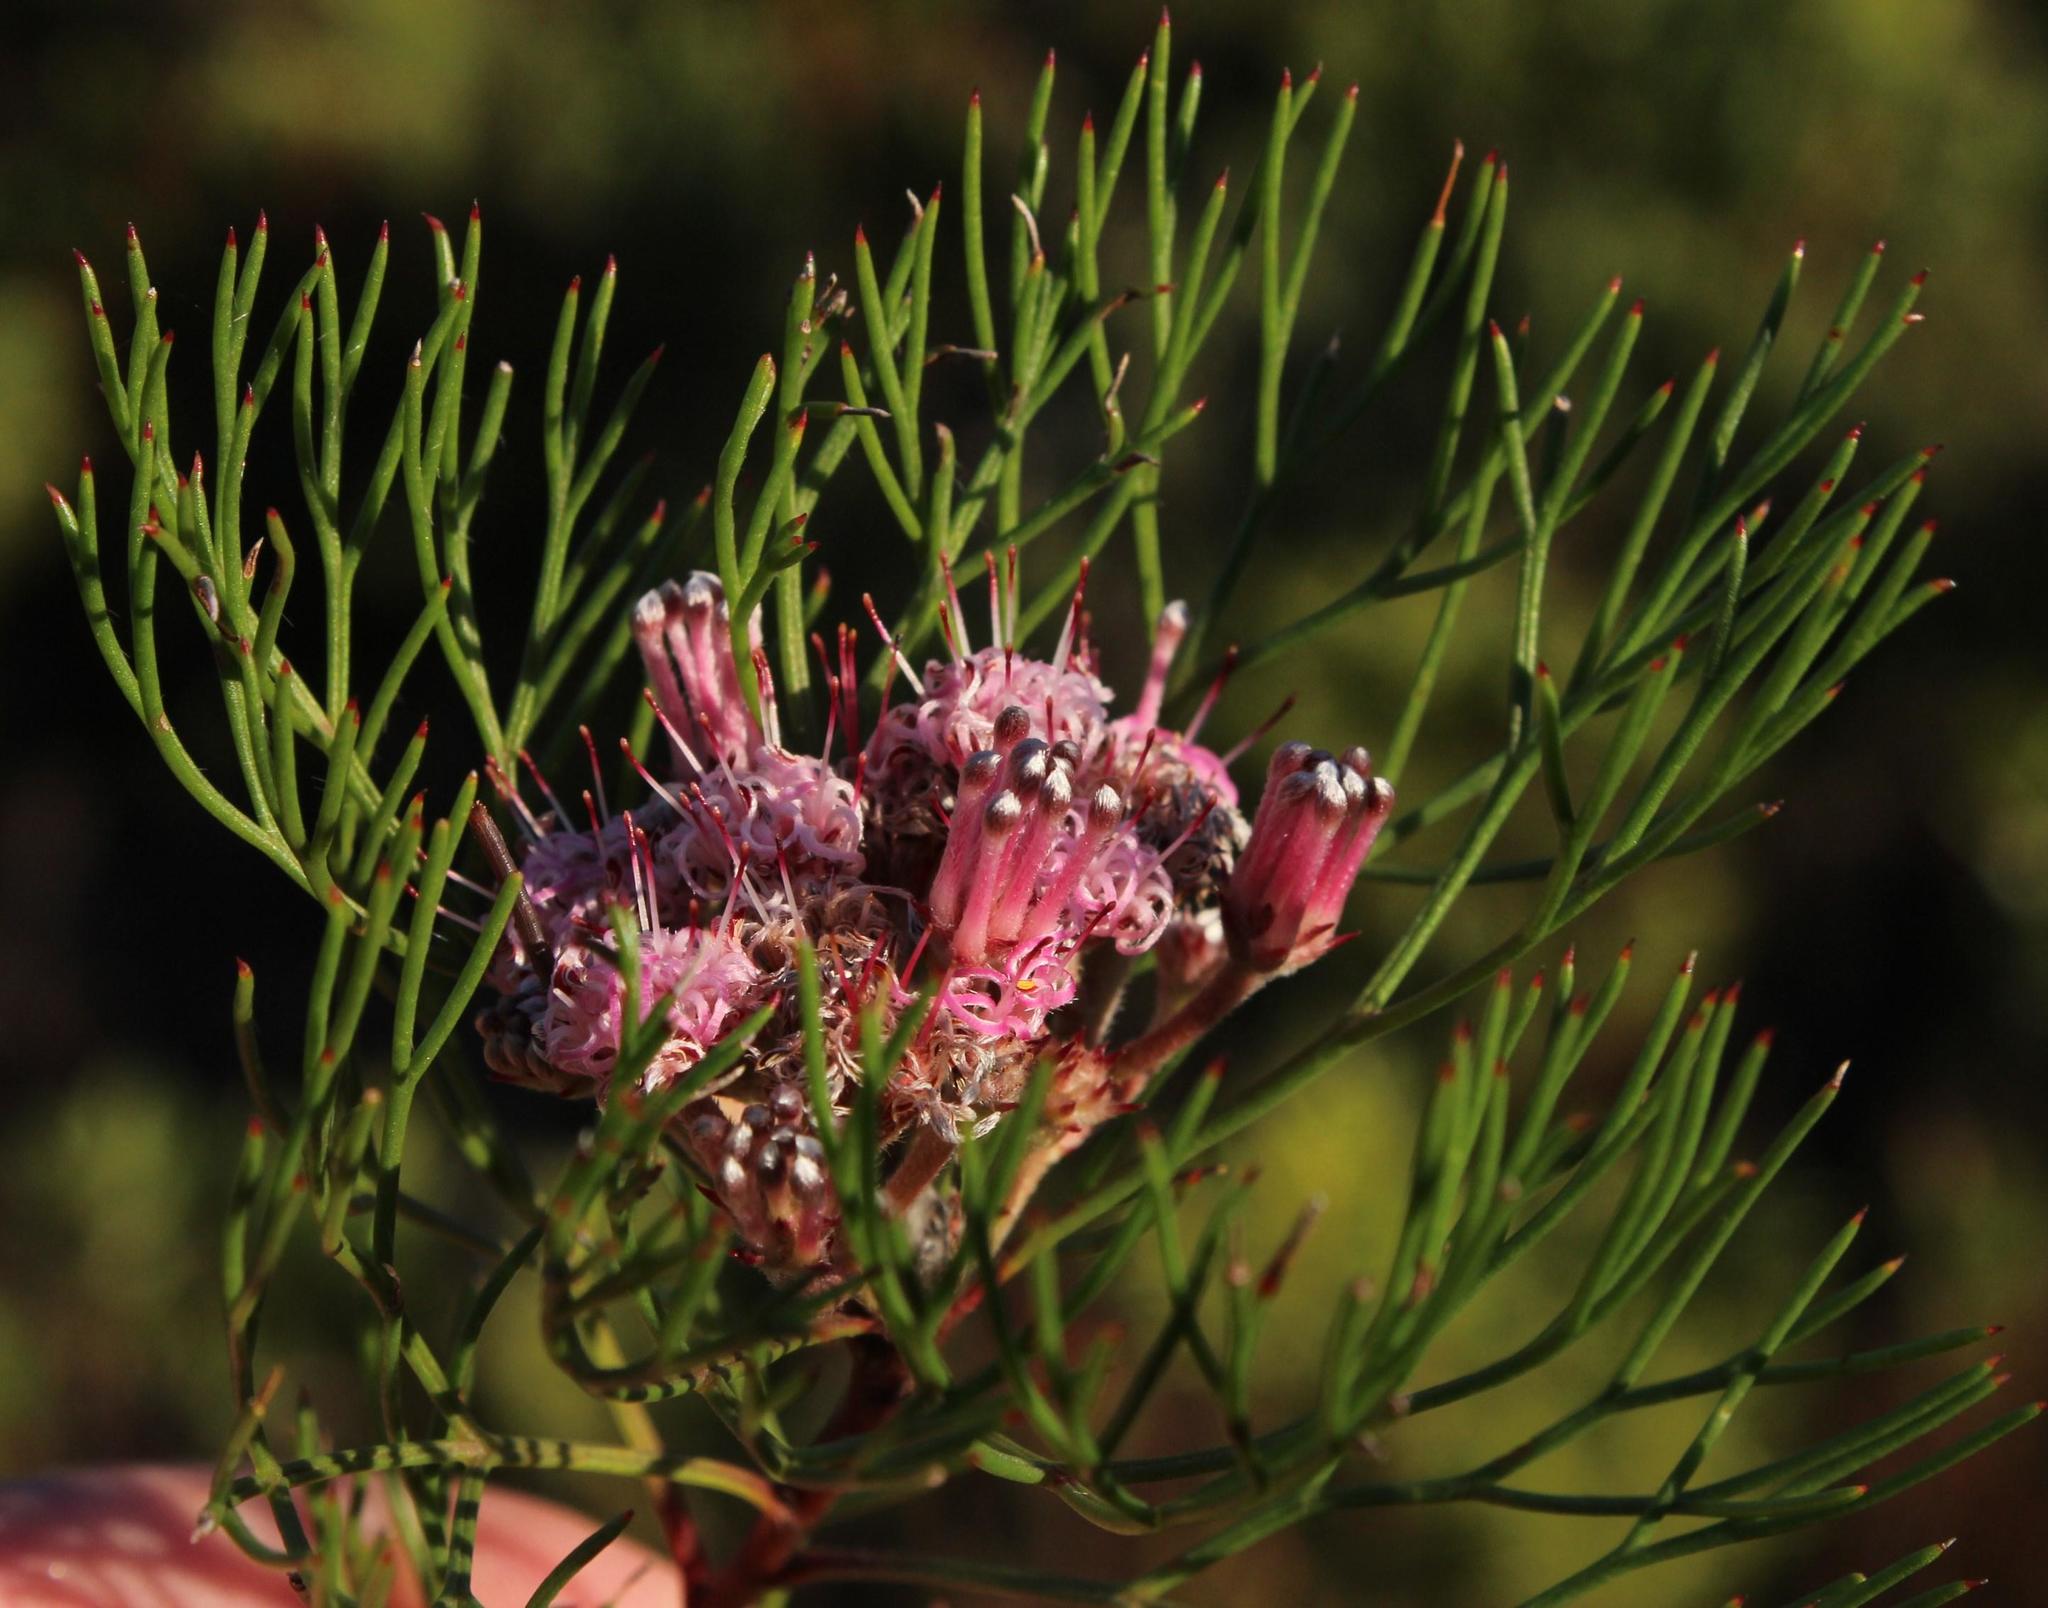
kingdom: Plantae
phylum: Tracheophyta
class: Magnoliopsida
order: Proteales
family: Proteaceae
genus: Serruria
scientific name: Serruria fasciflora
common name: Common pin spiderhead
